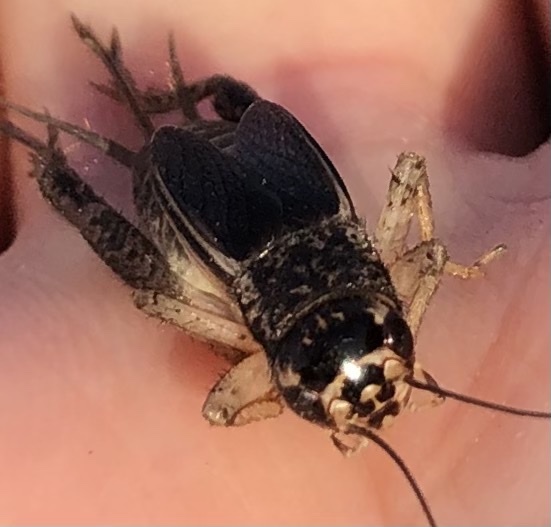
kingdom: Animalia
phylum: Arthropoda
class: Insecta
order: Orthoptera
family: Gryllidae
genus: Velarifictorus
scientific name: Velarifictorus micado
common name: Japanese burrowing cricket
